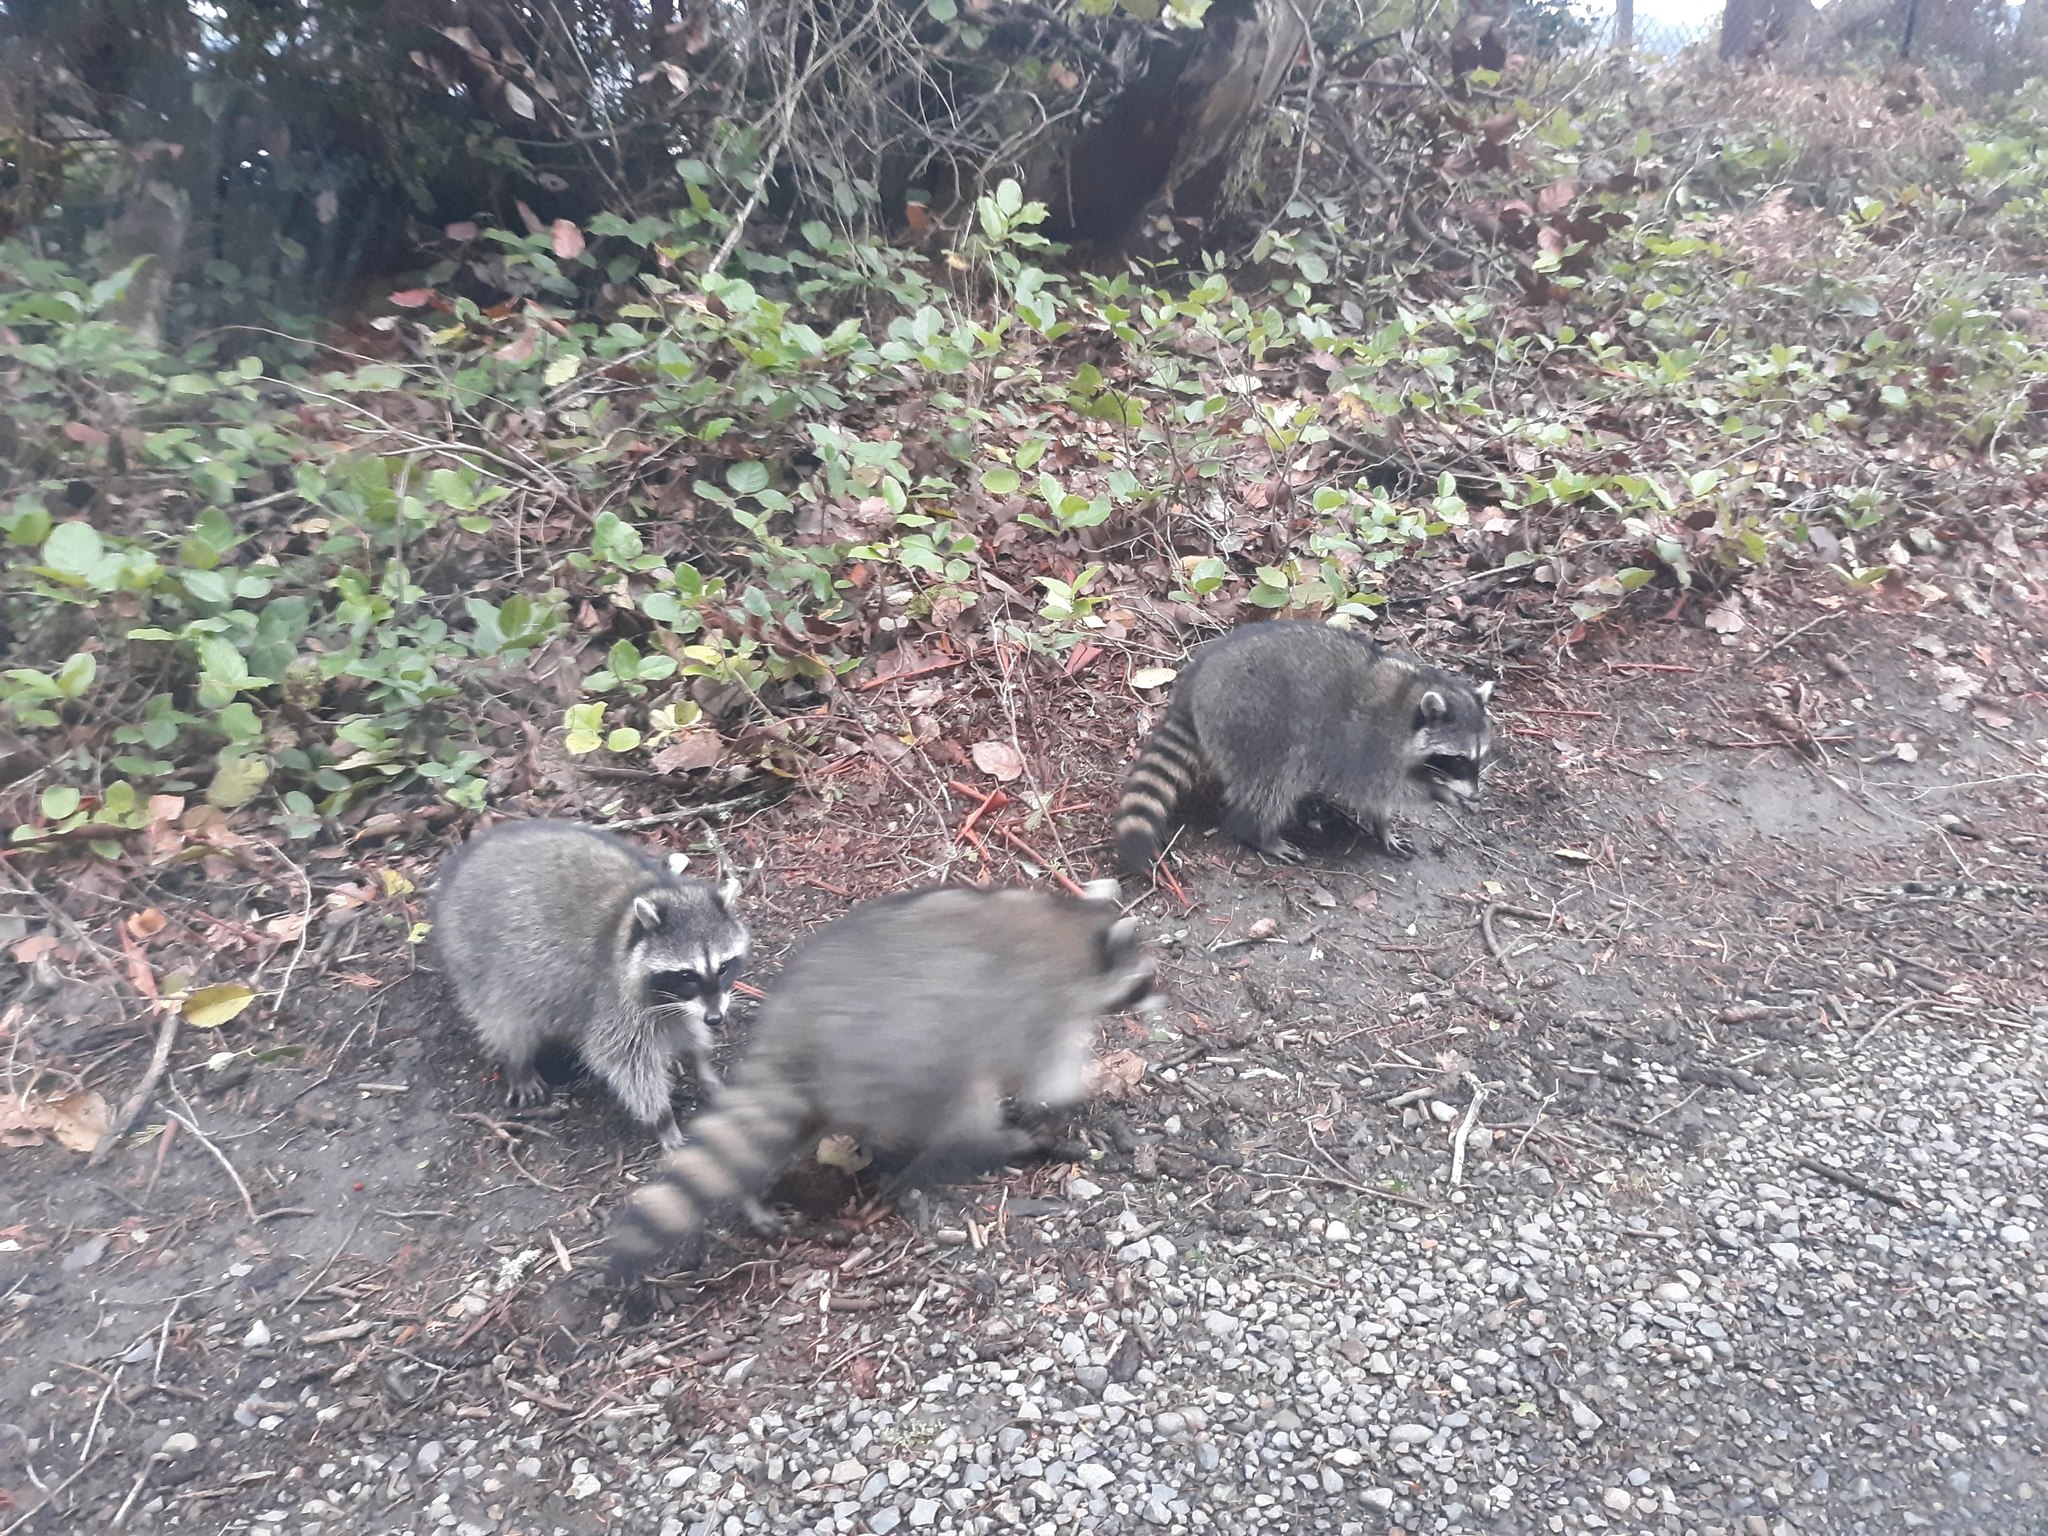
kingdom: Animalia
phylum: Chordata
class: Mammalia
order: Carnivora
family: Procyonidae
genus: Procyon
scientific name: Procyon lotor
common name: Raccoon
